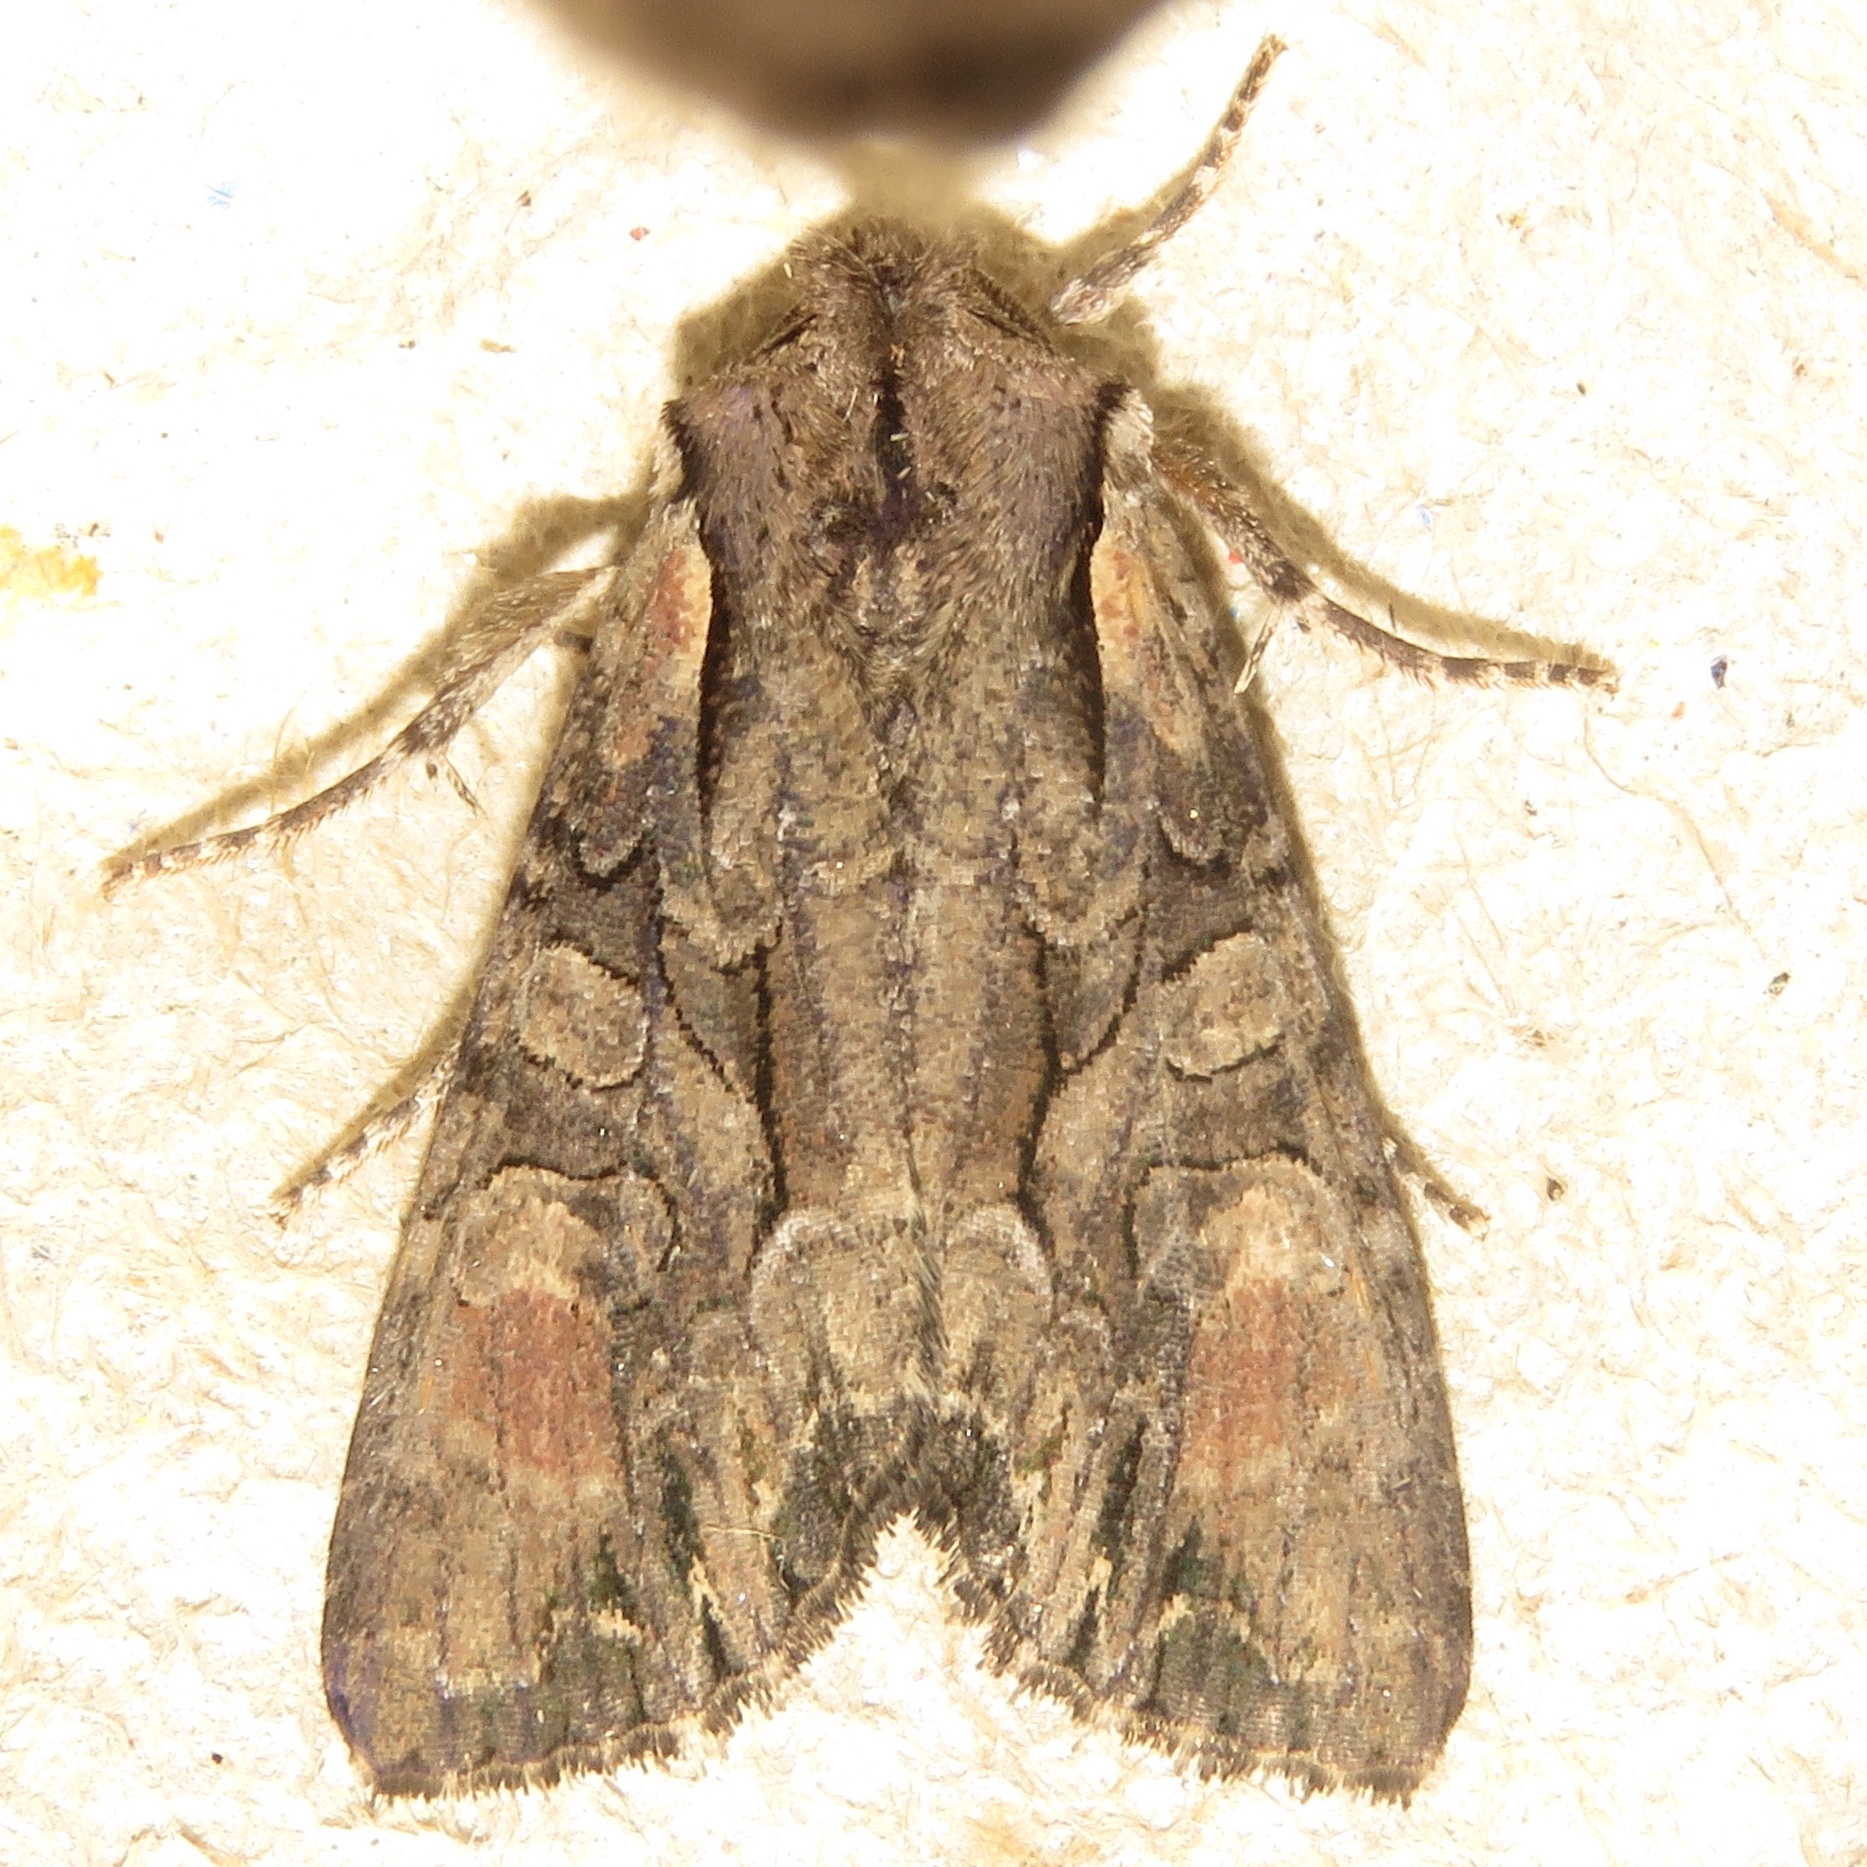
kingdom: Animalia
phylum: Arthropoda
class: Insecta
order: Lepidoptera
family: Noctuidae
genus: Lacanobia
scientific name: Lacanobia subjuncta
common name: Speckled cutworm moth
